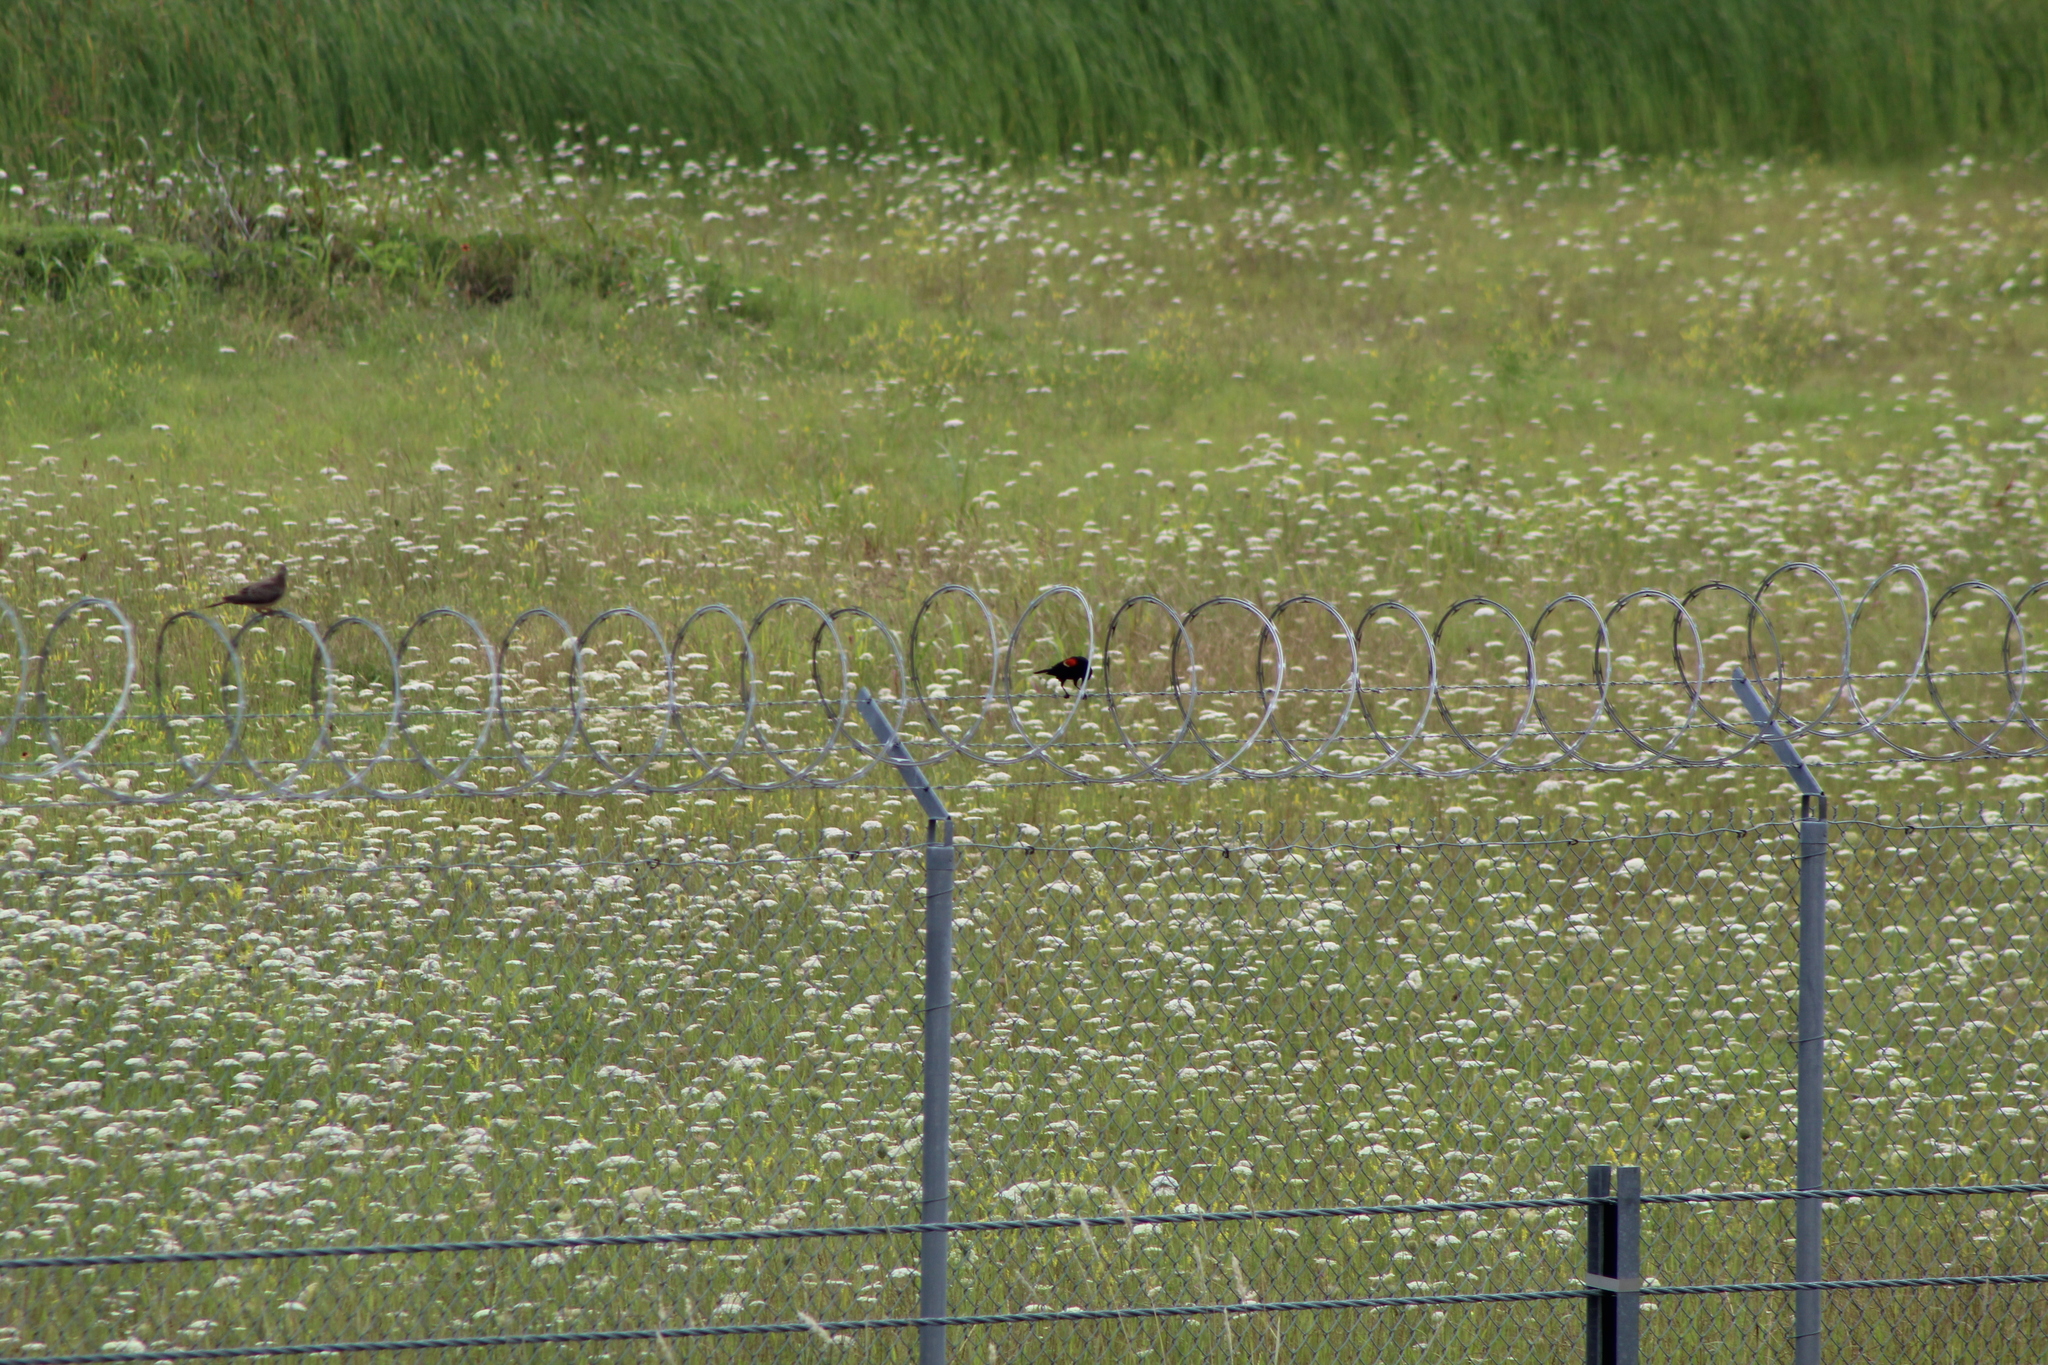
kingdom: Animalia
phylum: Chordata
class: Aves
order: Passeriformes
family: Icteridae
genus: Agelaius
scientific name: Agelaius phoeniceus
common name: Red-winged blackbird
